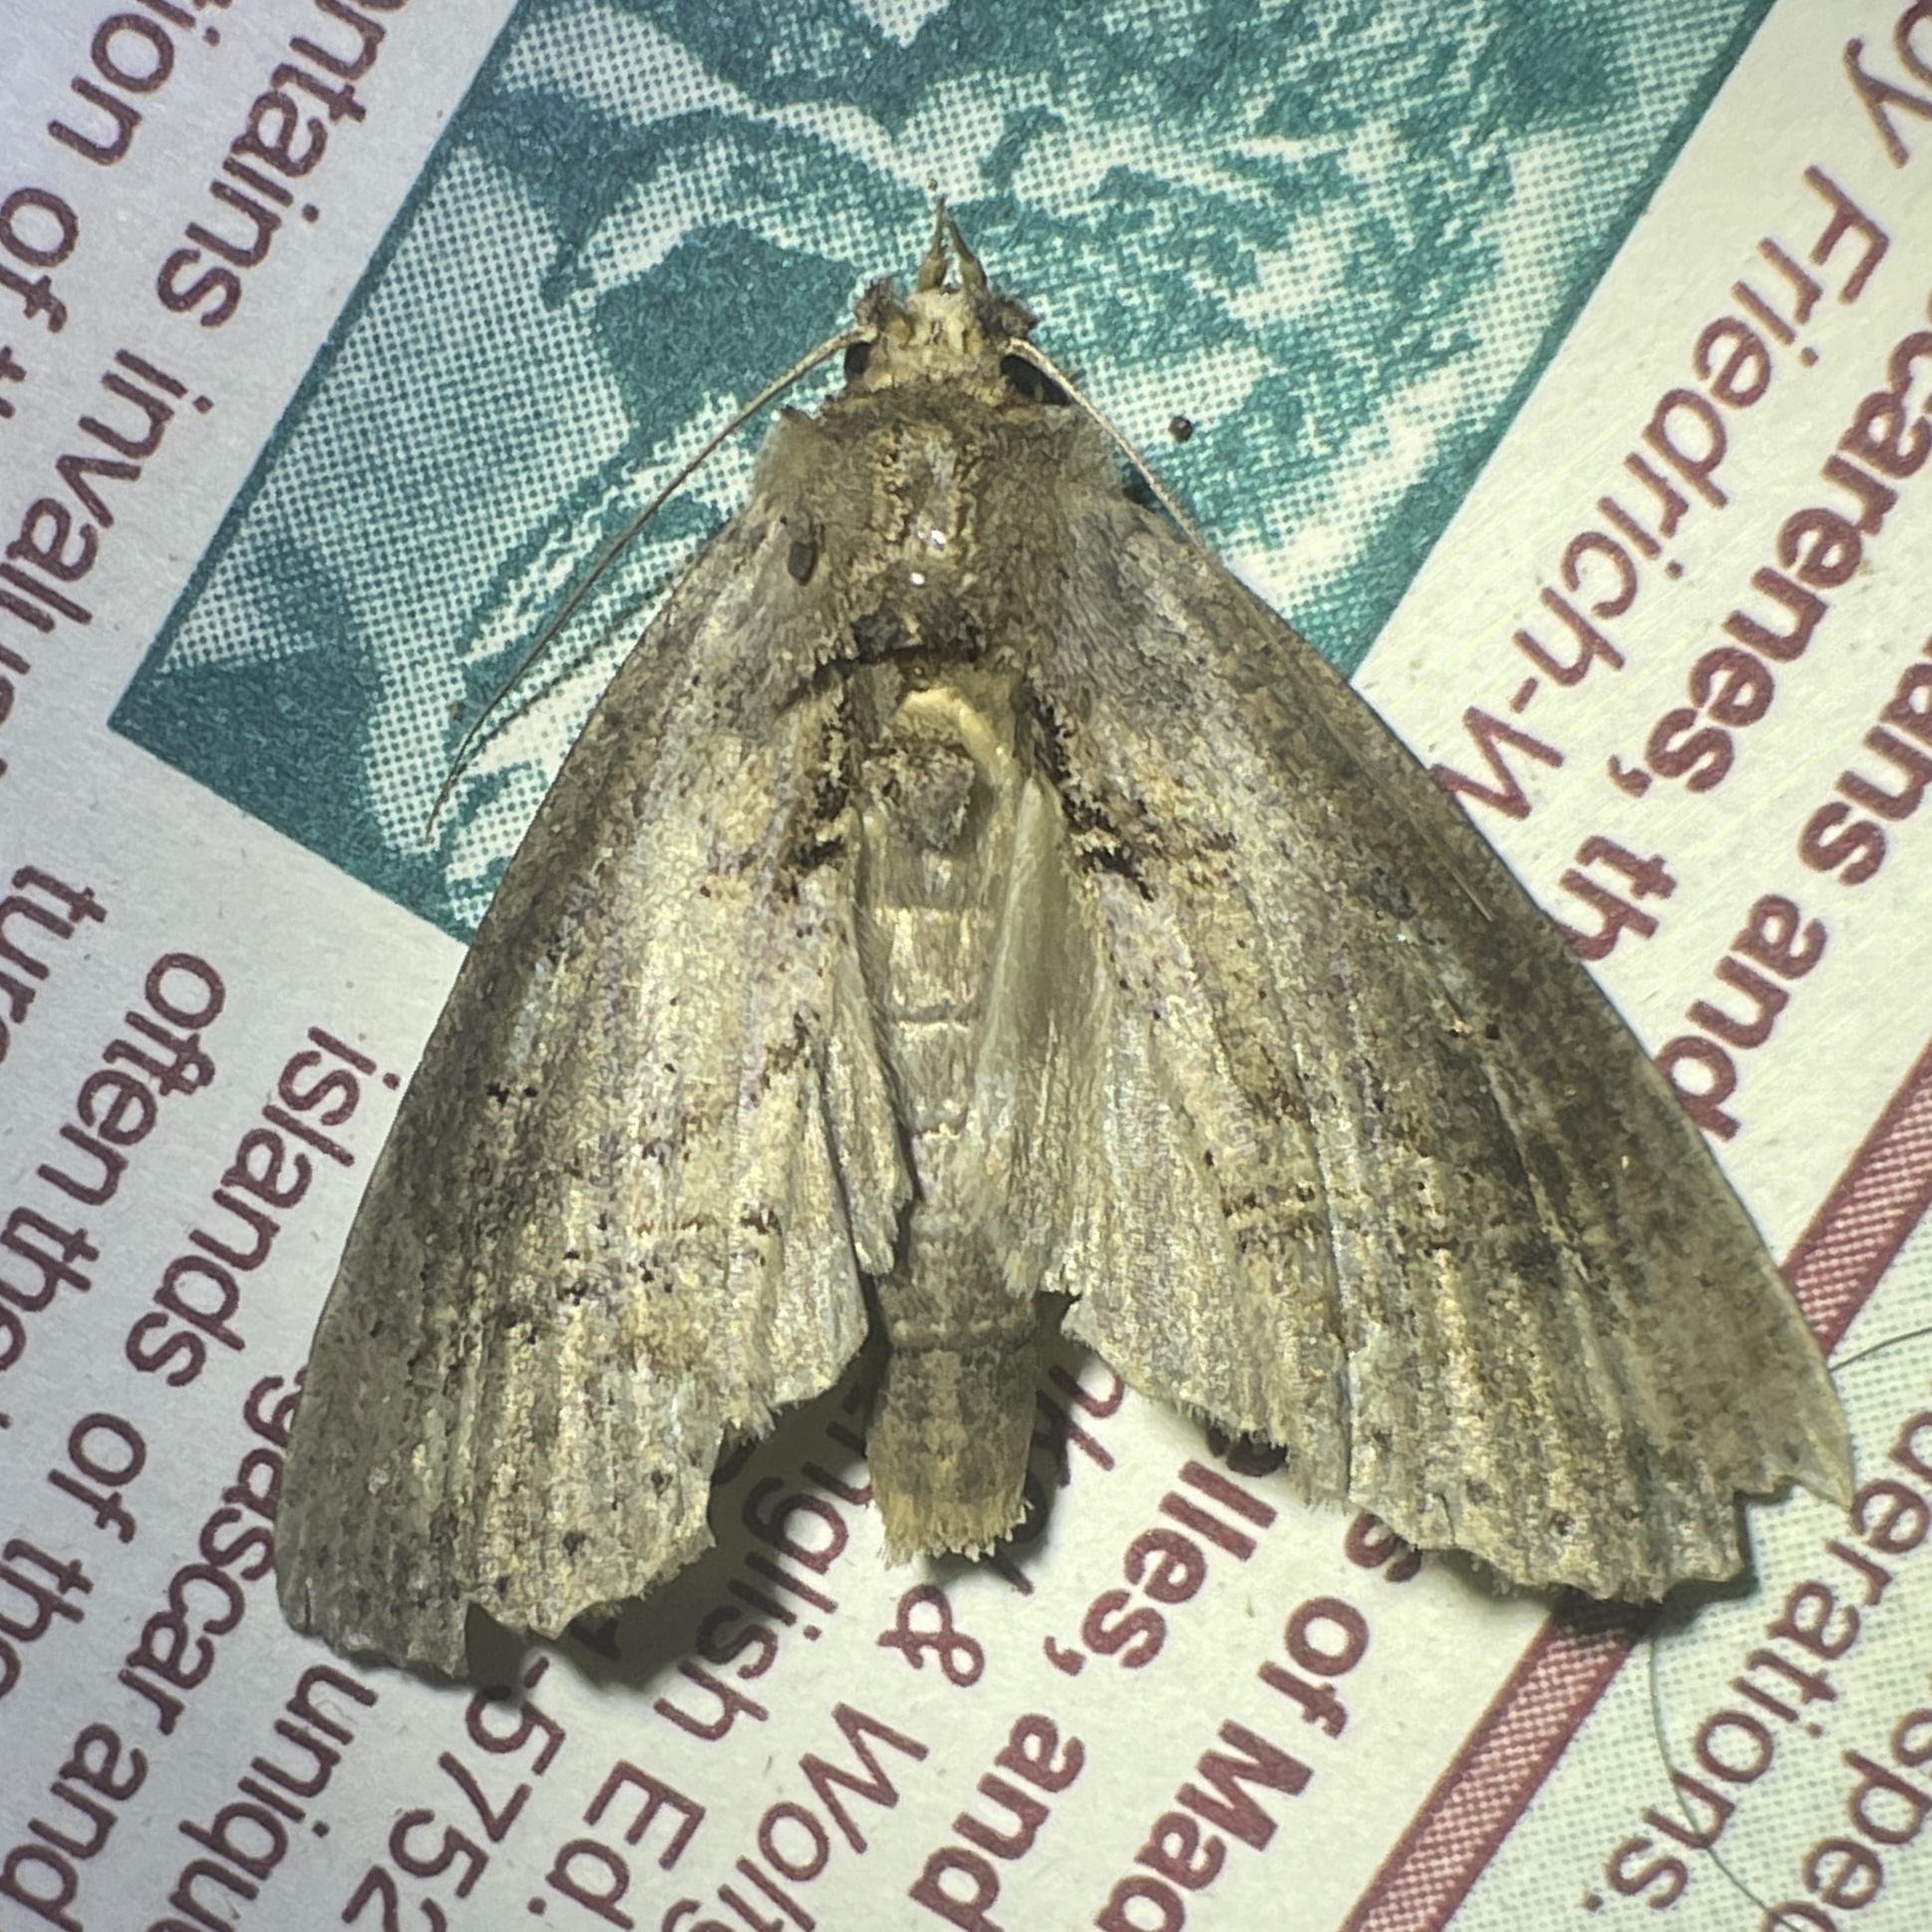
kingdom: Animalia
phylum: Arthropoda
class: Insecta
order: Lepidoptera
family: Notodontidae
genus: Bardaxima
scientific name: Bardaxima marcida
